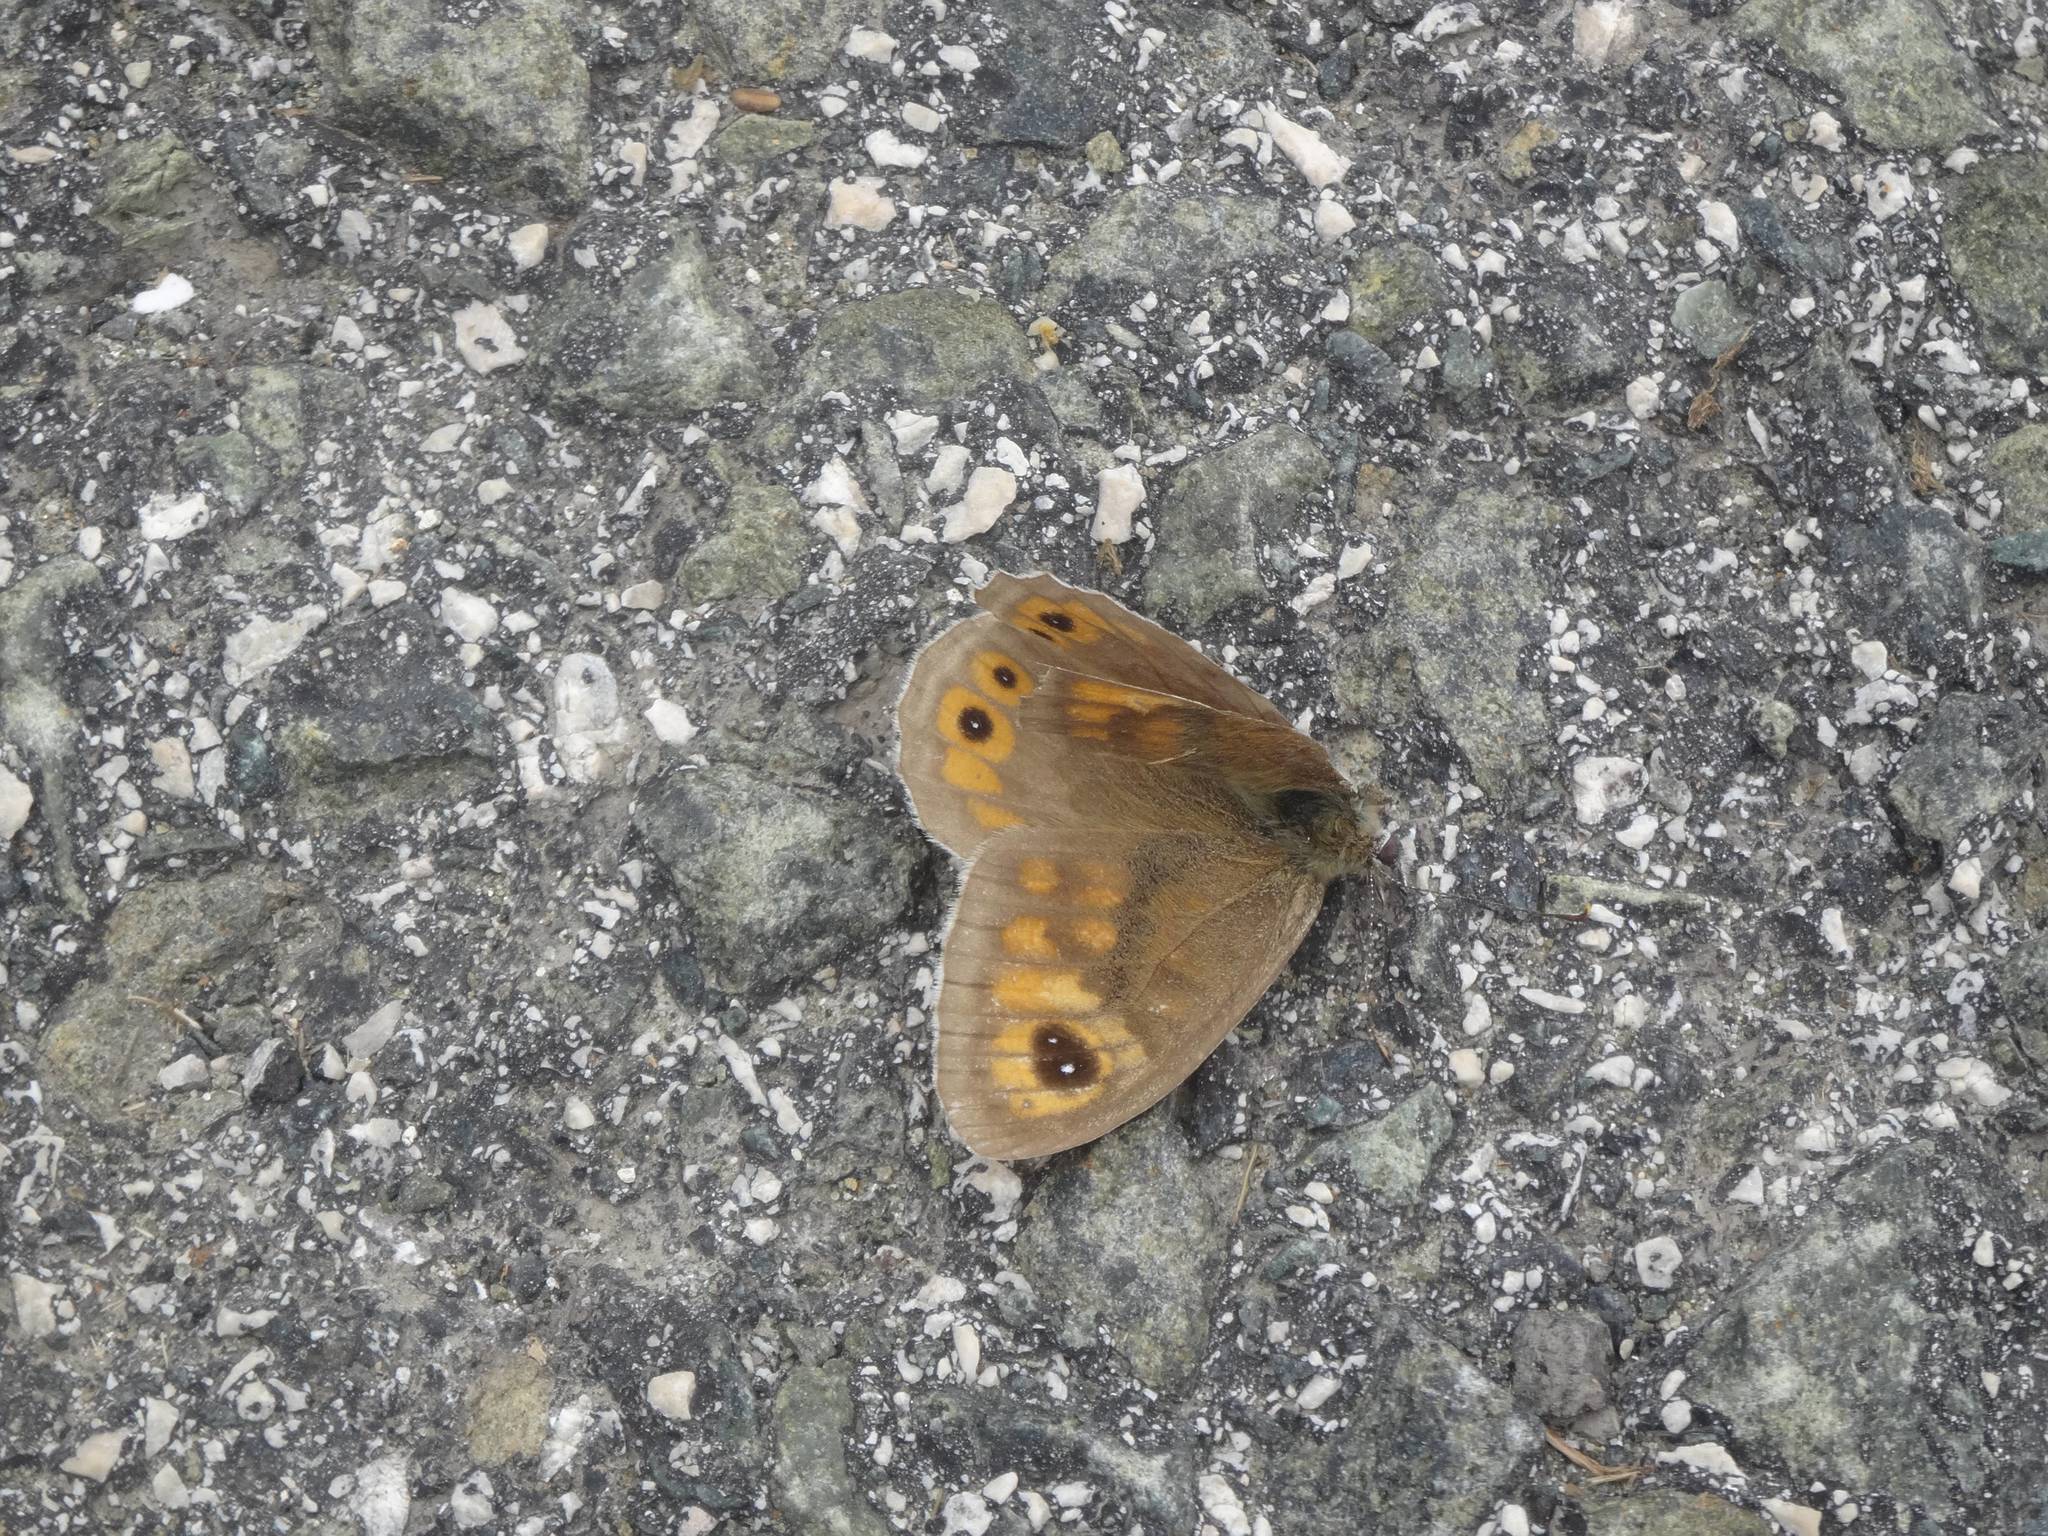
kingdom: Animalia
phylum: Arthropoda
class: Insecta
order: Lepidoptera
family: Nymphalidae
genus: Pararge
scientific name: Pararge Lasiommata maera
